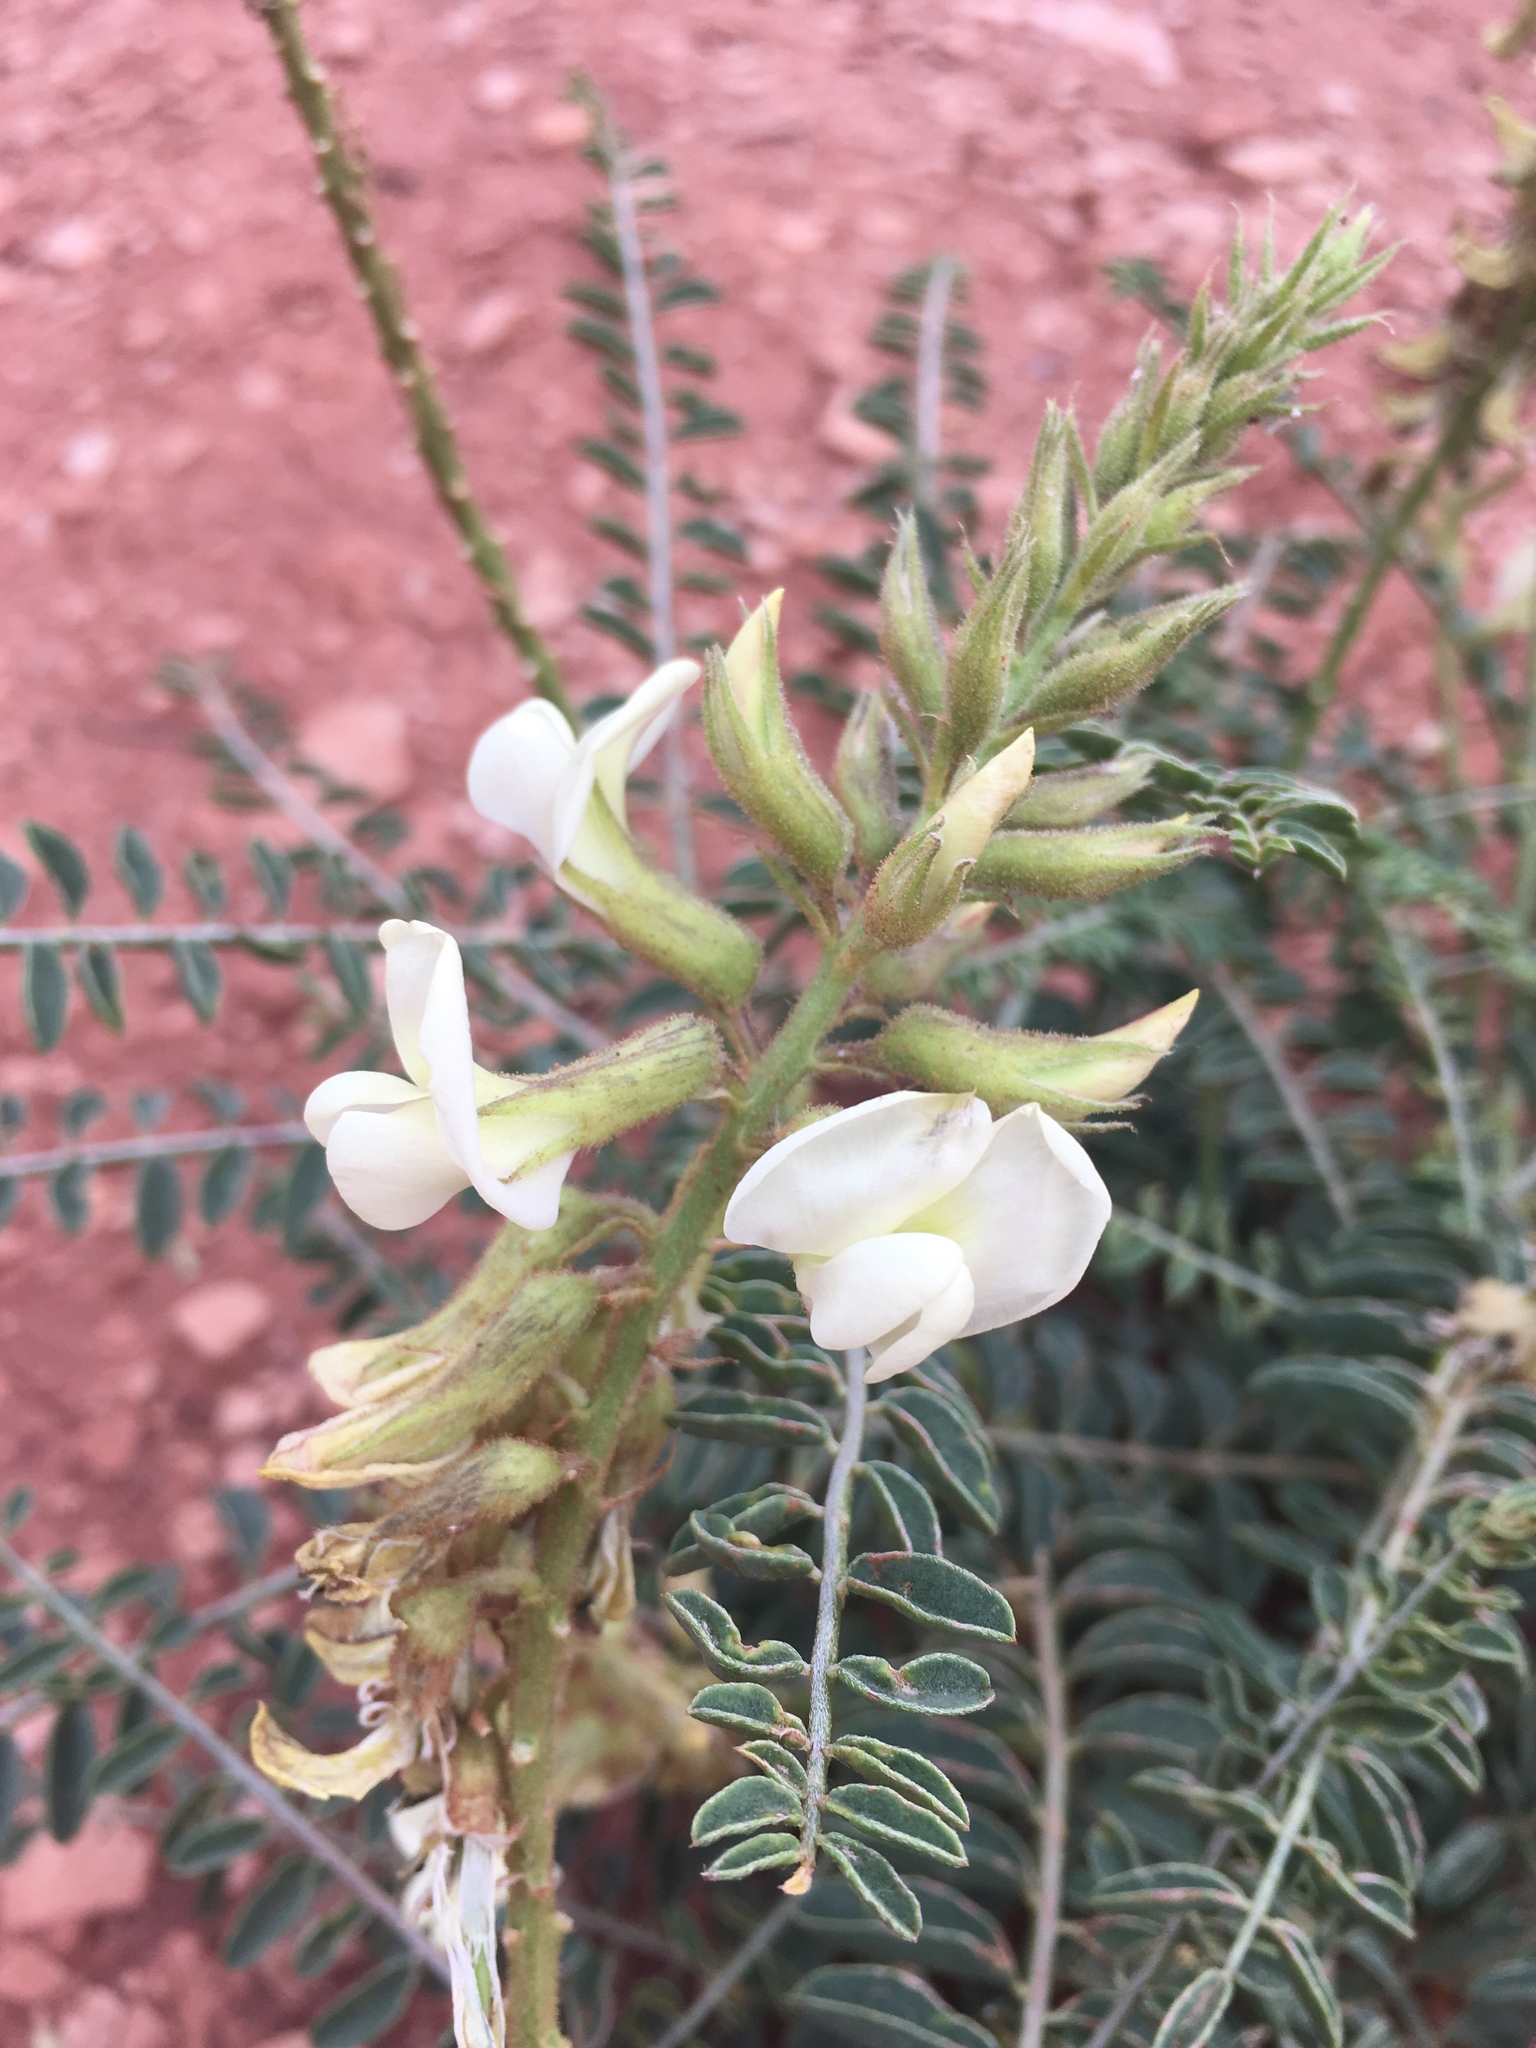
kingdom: Plantae
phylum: Tracheophyta
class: Magnoliopsida
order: Fabales
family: Fabaceae
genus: Peteria
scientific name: Peteria thompsoniae
